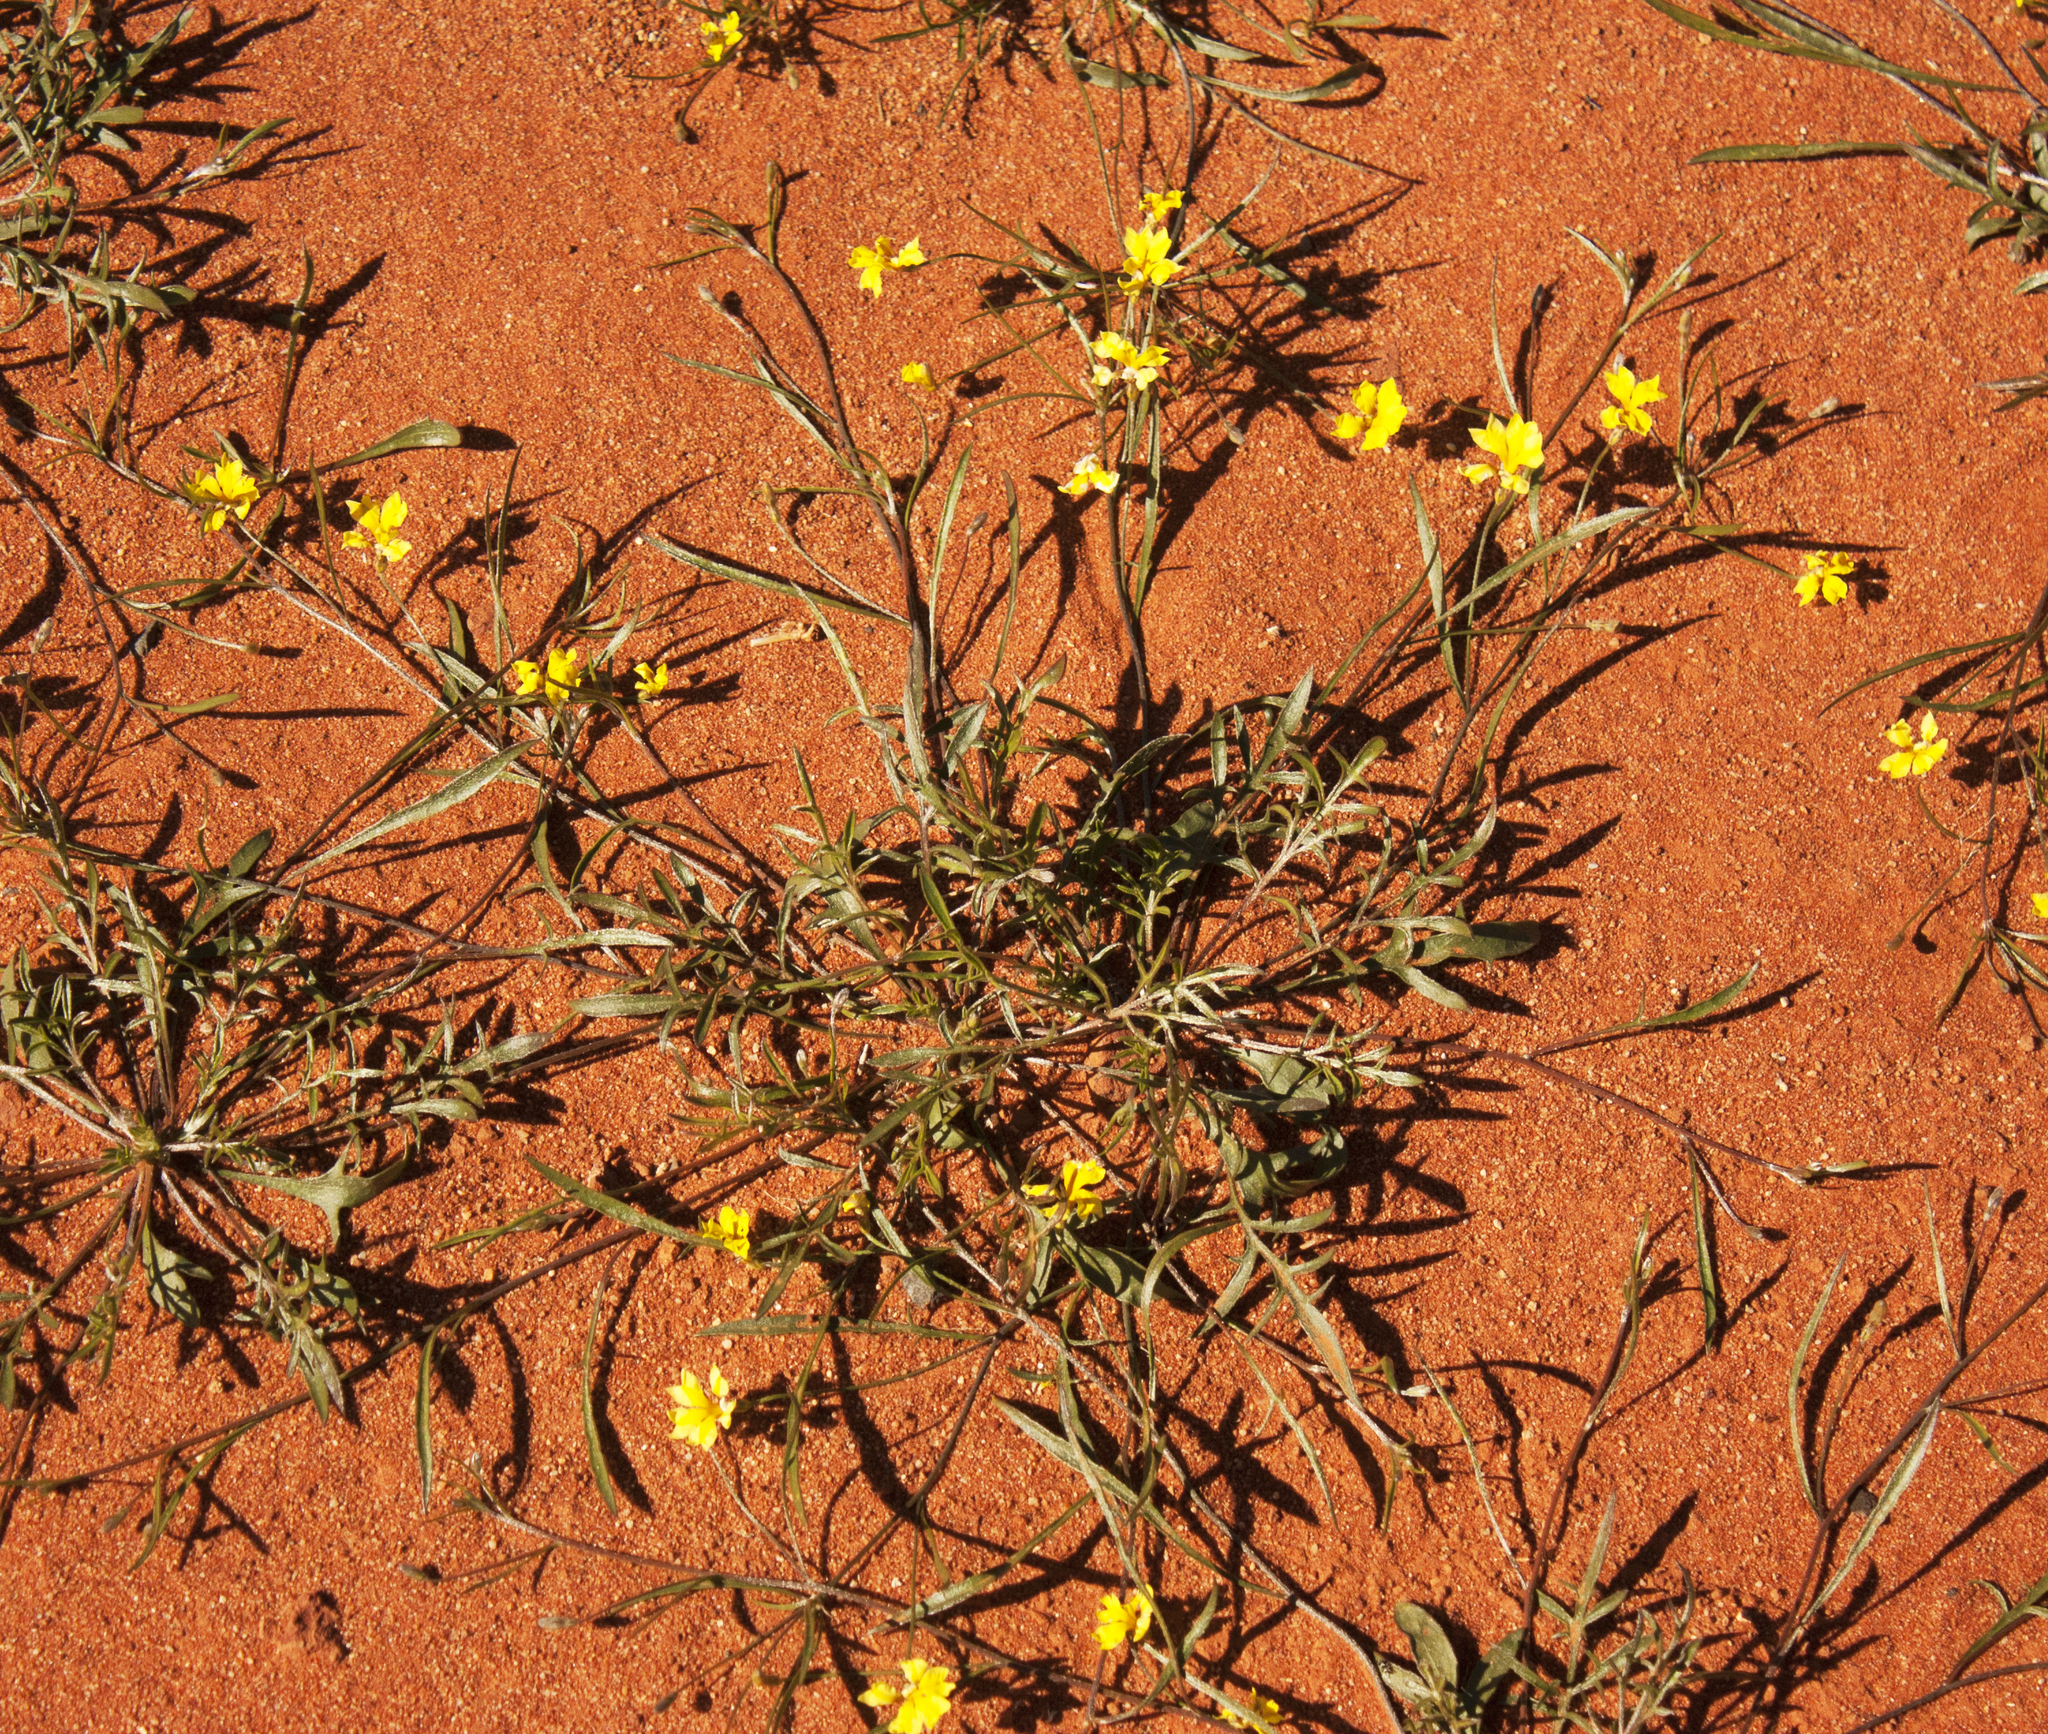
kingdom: Plantae
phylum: Tracheophyta
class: Magnoliopsida
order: Asterales
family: Goodeniaceae
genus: Goodenia
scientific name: Goodenia havilandi
